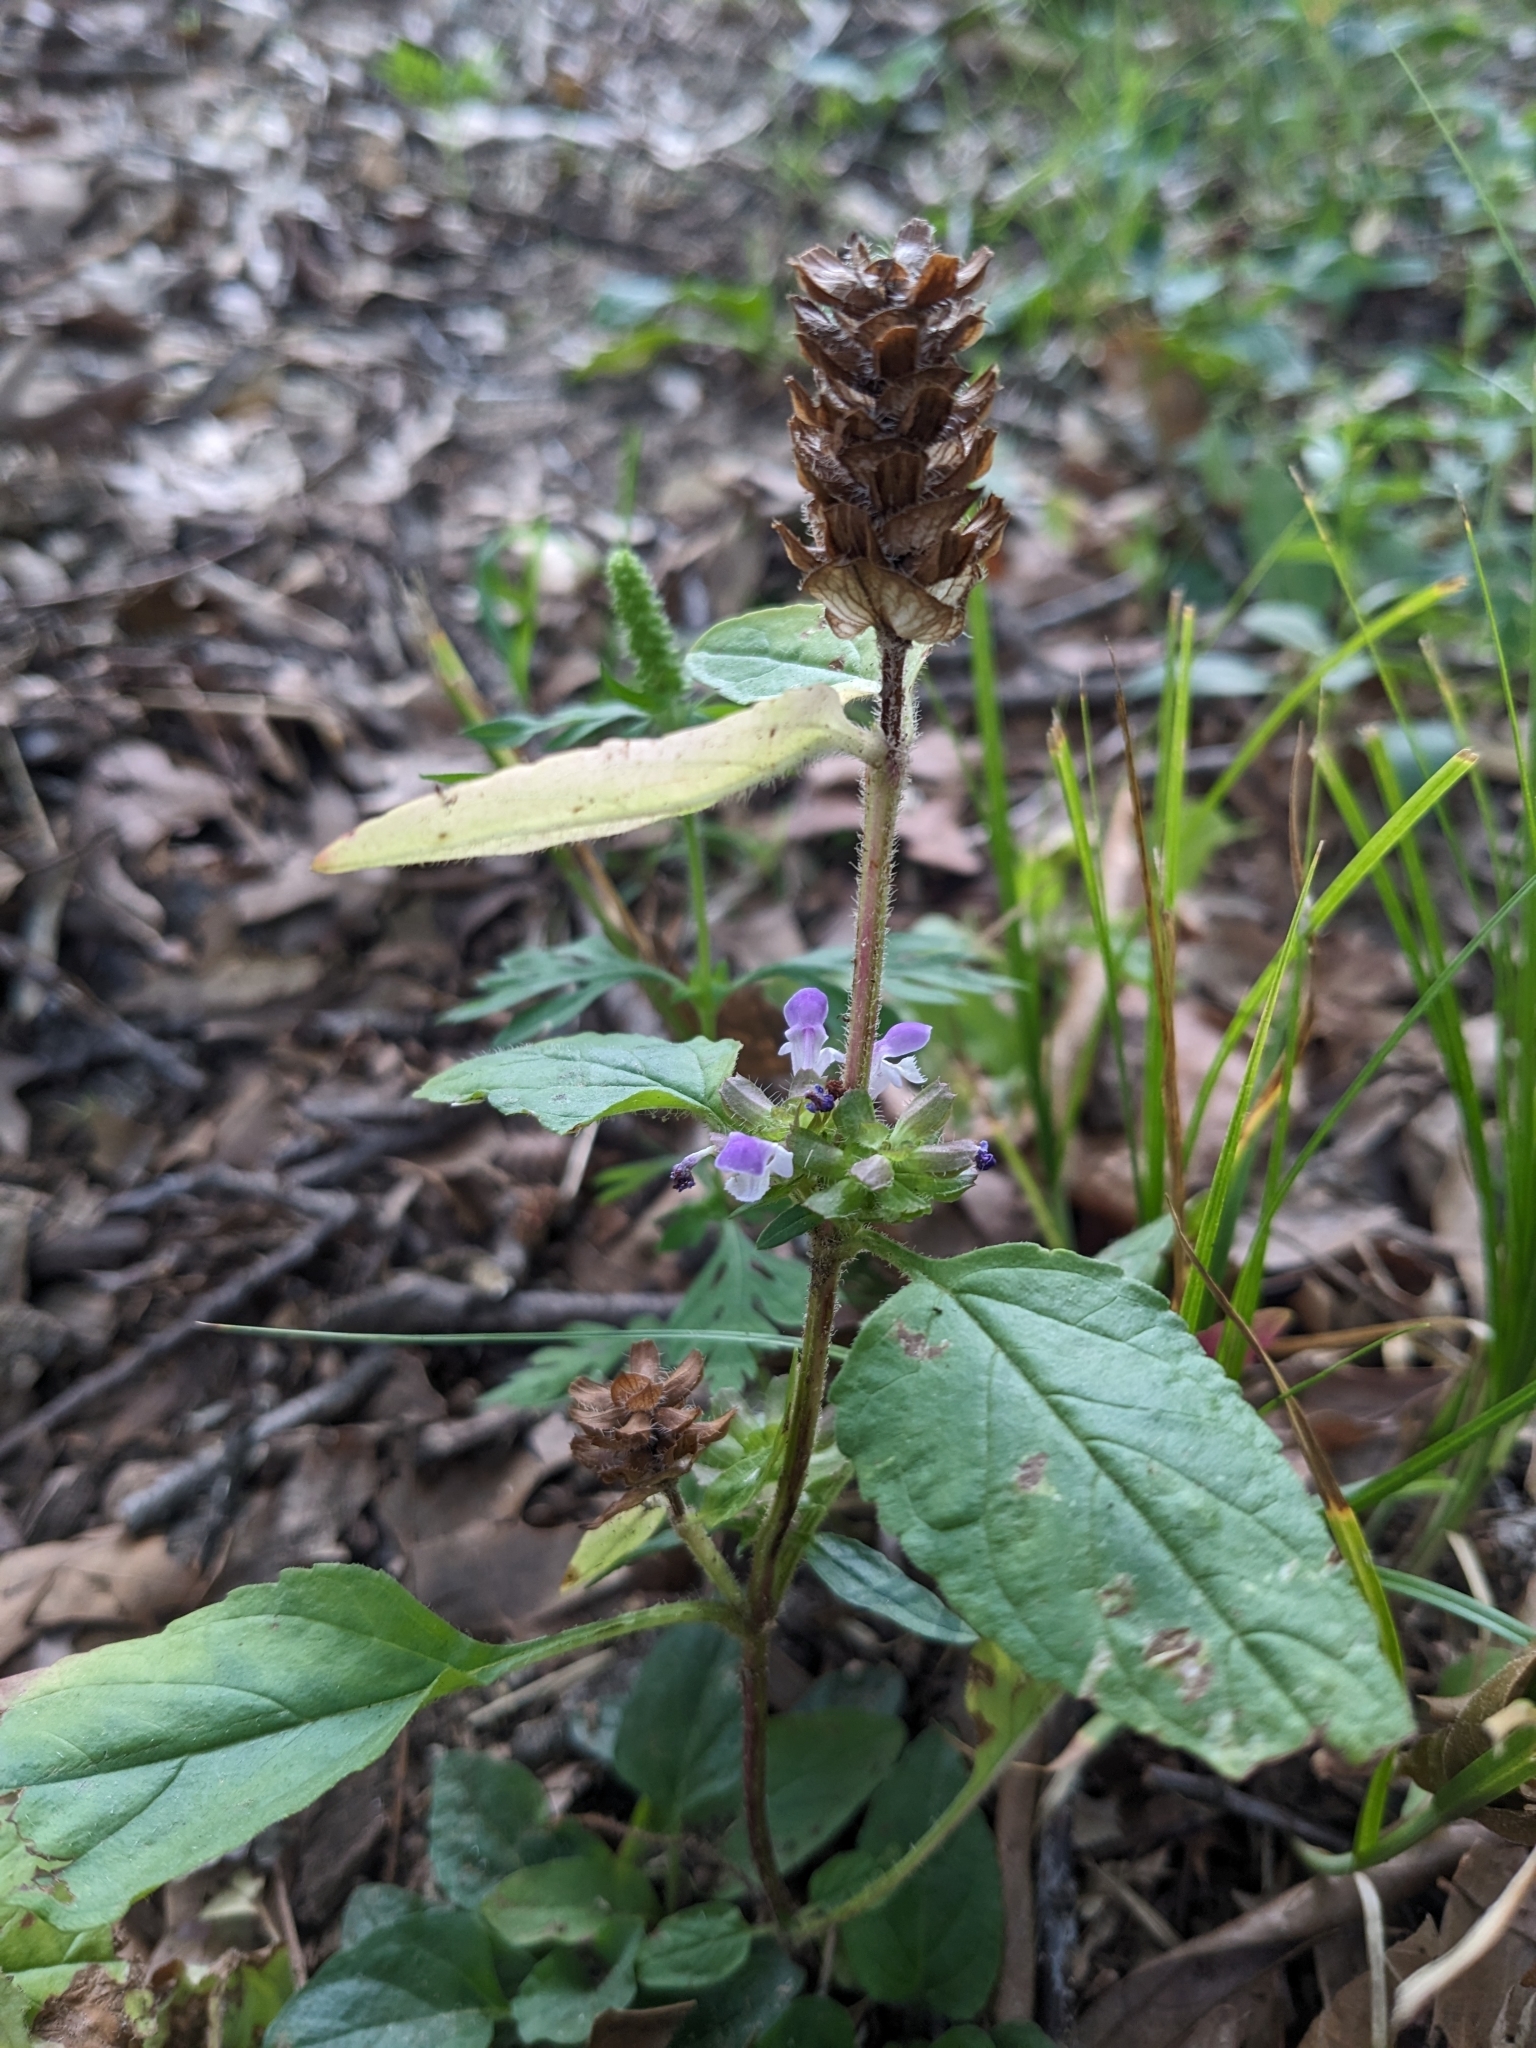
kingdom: Plantae
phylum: Tracheophyta
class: Magnoliopsida
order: Lamiales
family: Lamiaceae
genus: Prunella
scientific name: Prunella vulgaris
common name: Heal-all
